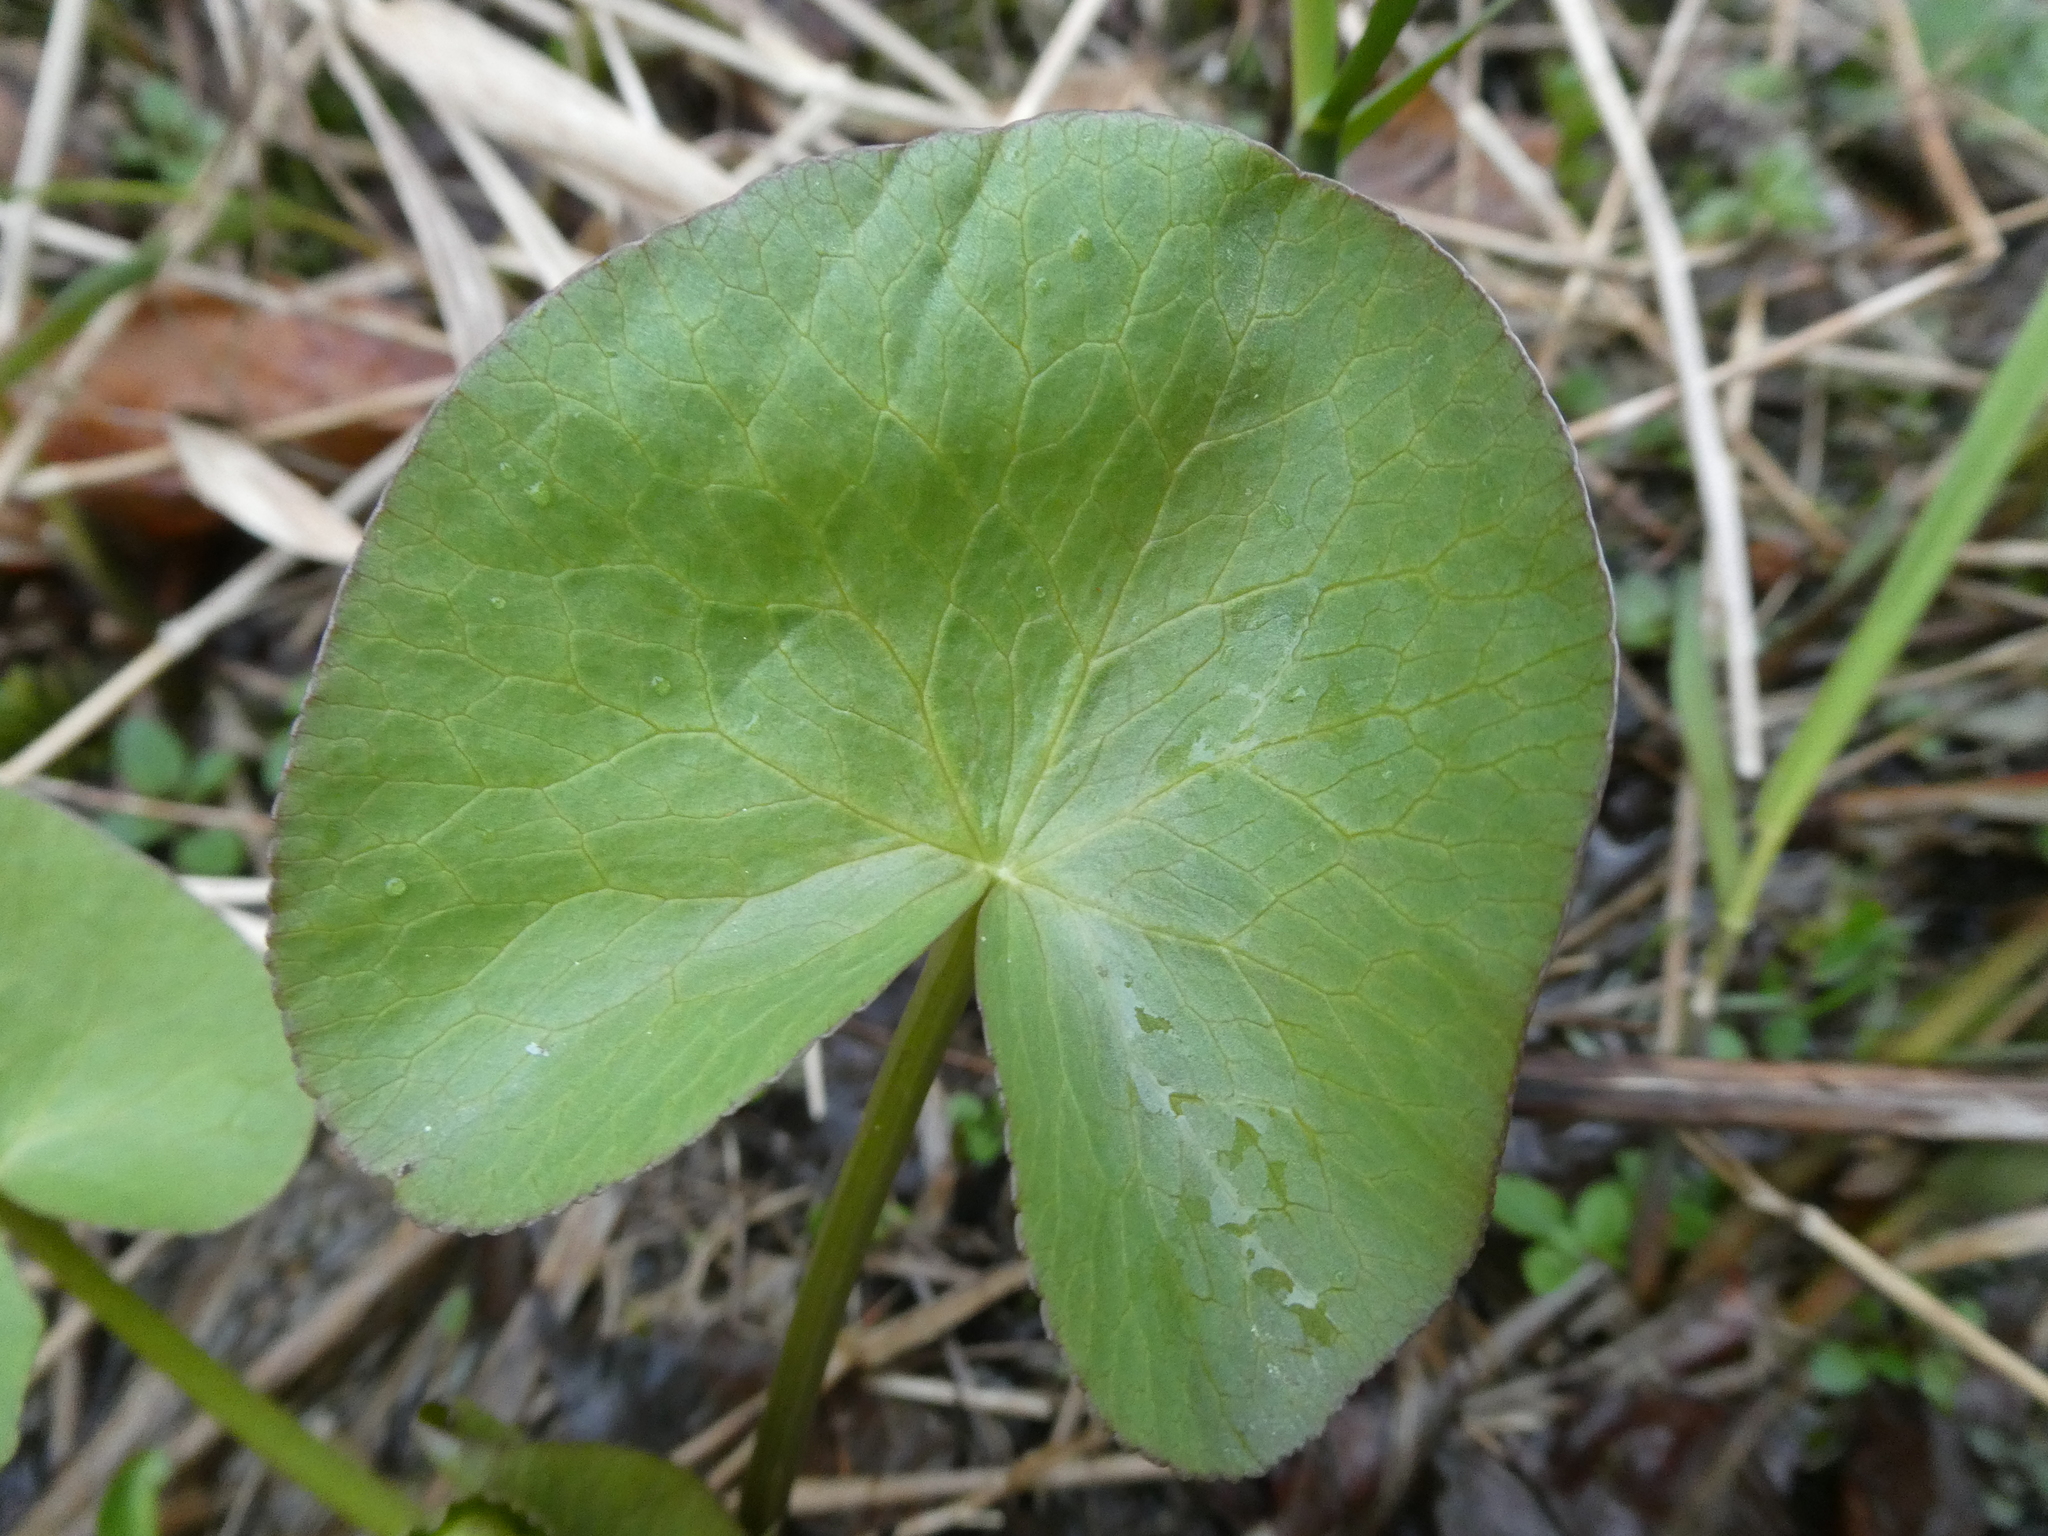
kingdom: Plantae
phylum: Tracheophyta
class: Magnoliopsida
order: Ranunculales
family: Ranunculaceae
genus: Caltha
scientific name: Caltha palustris
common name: Marsh marigold
